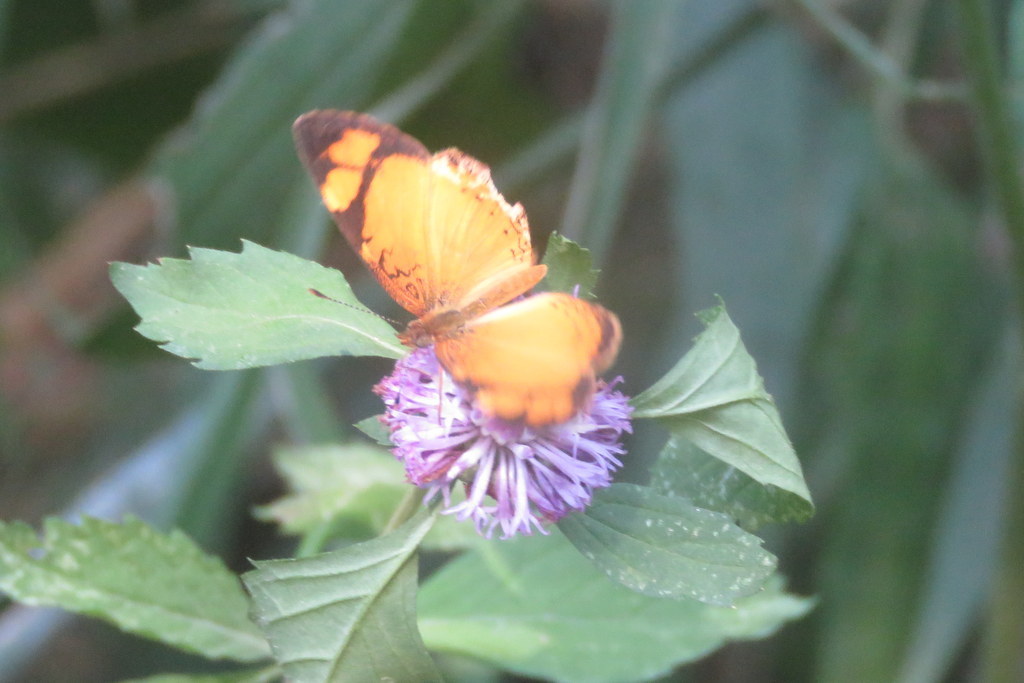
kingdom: Animalia
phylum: Arthropoda
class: Insecta
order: Lepidoptera
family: Nymphalidae
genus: Tegosa
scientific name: Tegosa claudina
